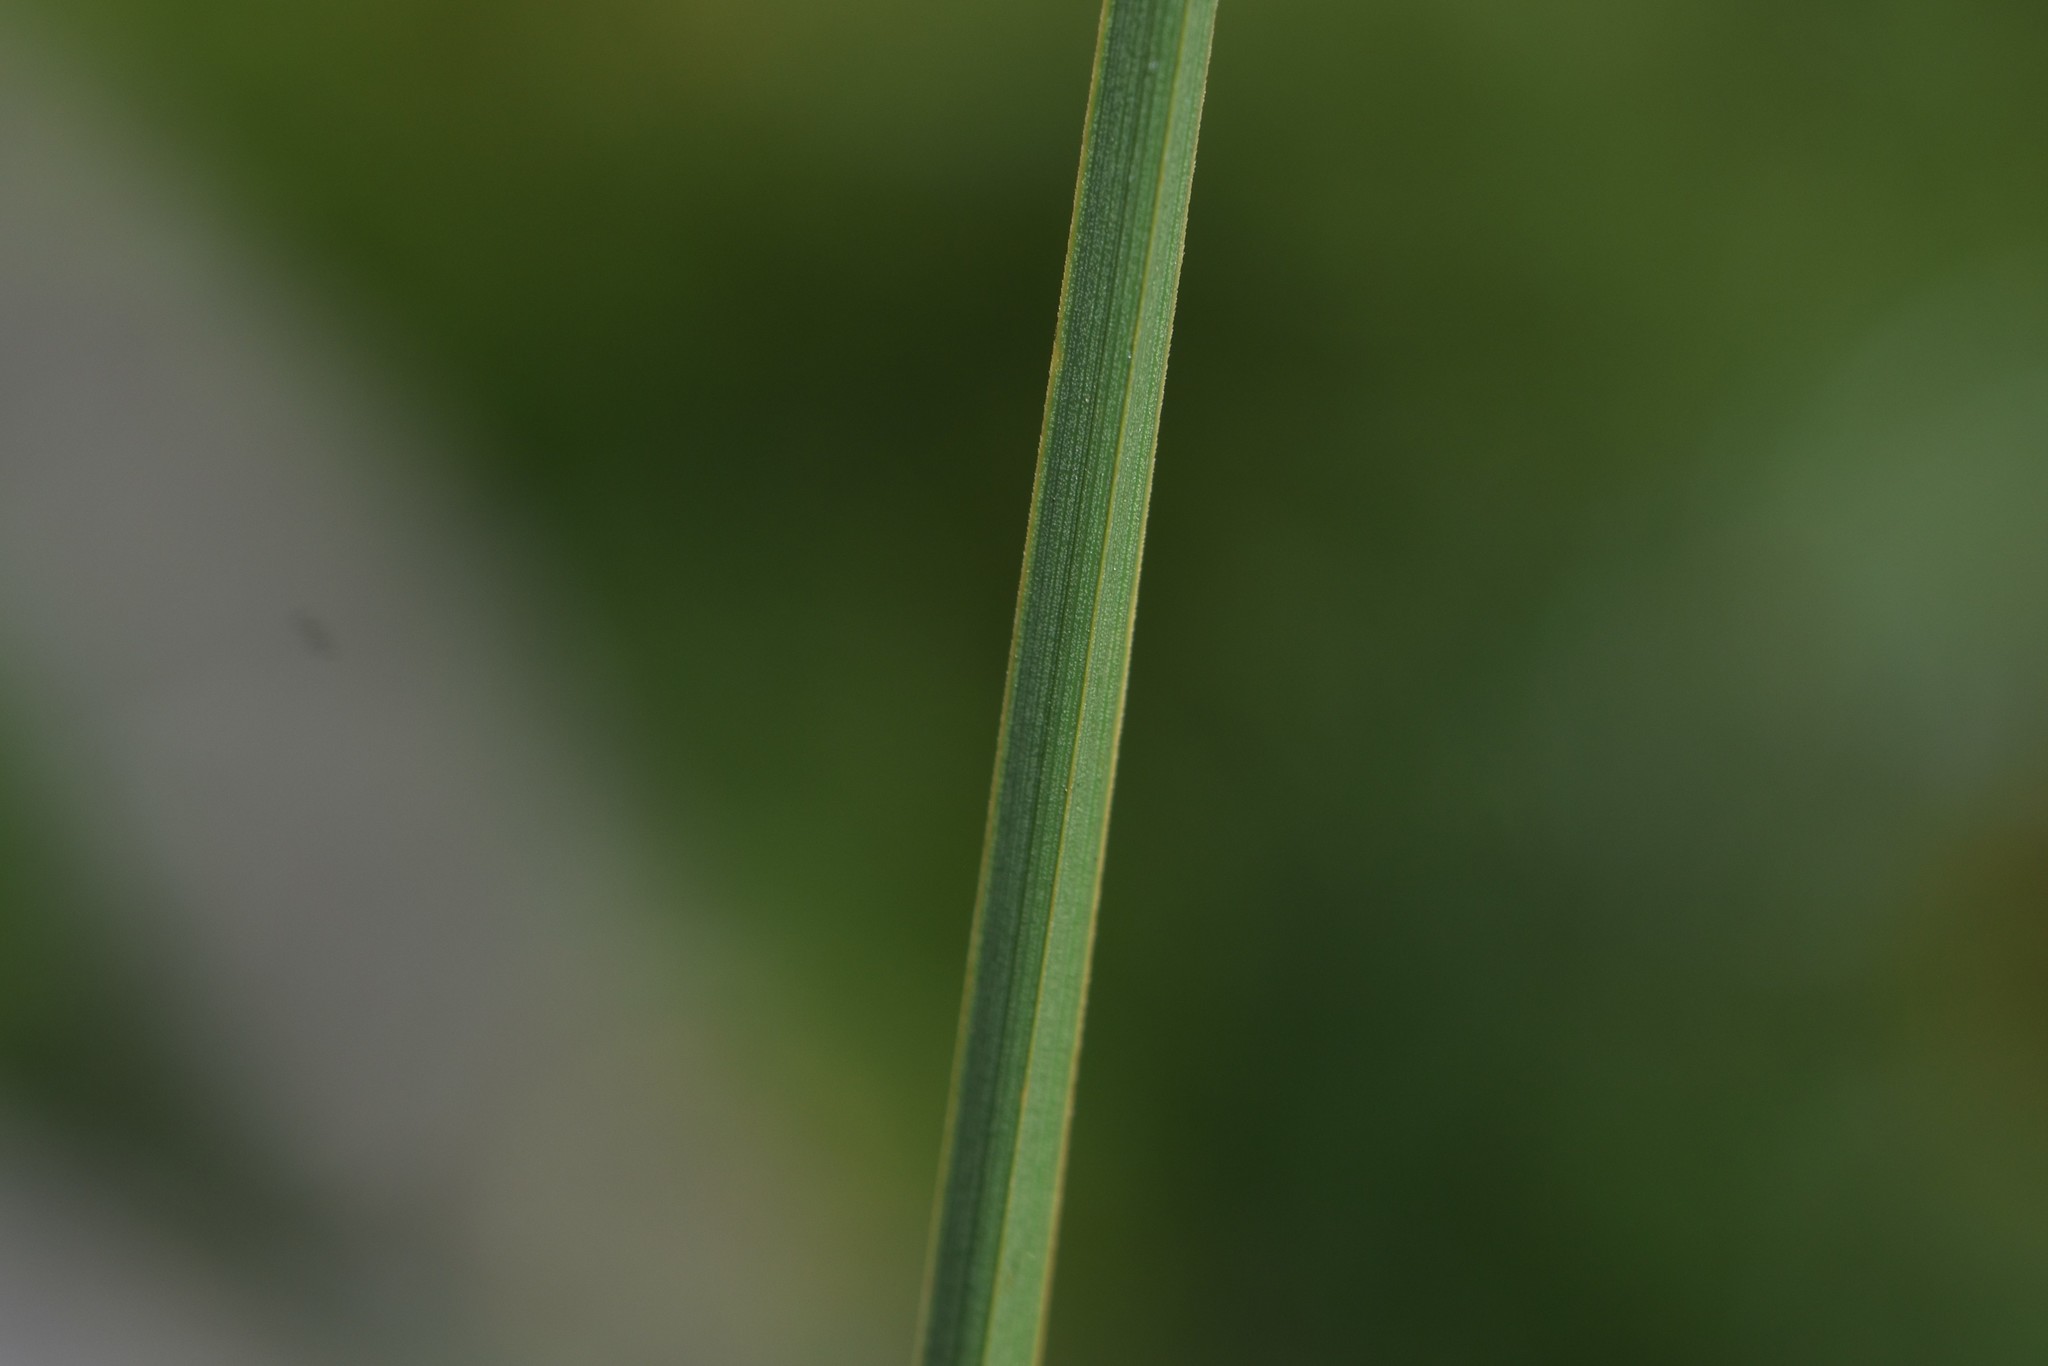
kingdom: Plantae
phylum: Tracheophyta
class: Liliopsida
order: Poales
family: Cyperaceae
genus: Carex
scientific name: Carex mertensii
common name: Mertens' sedge
